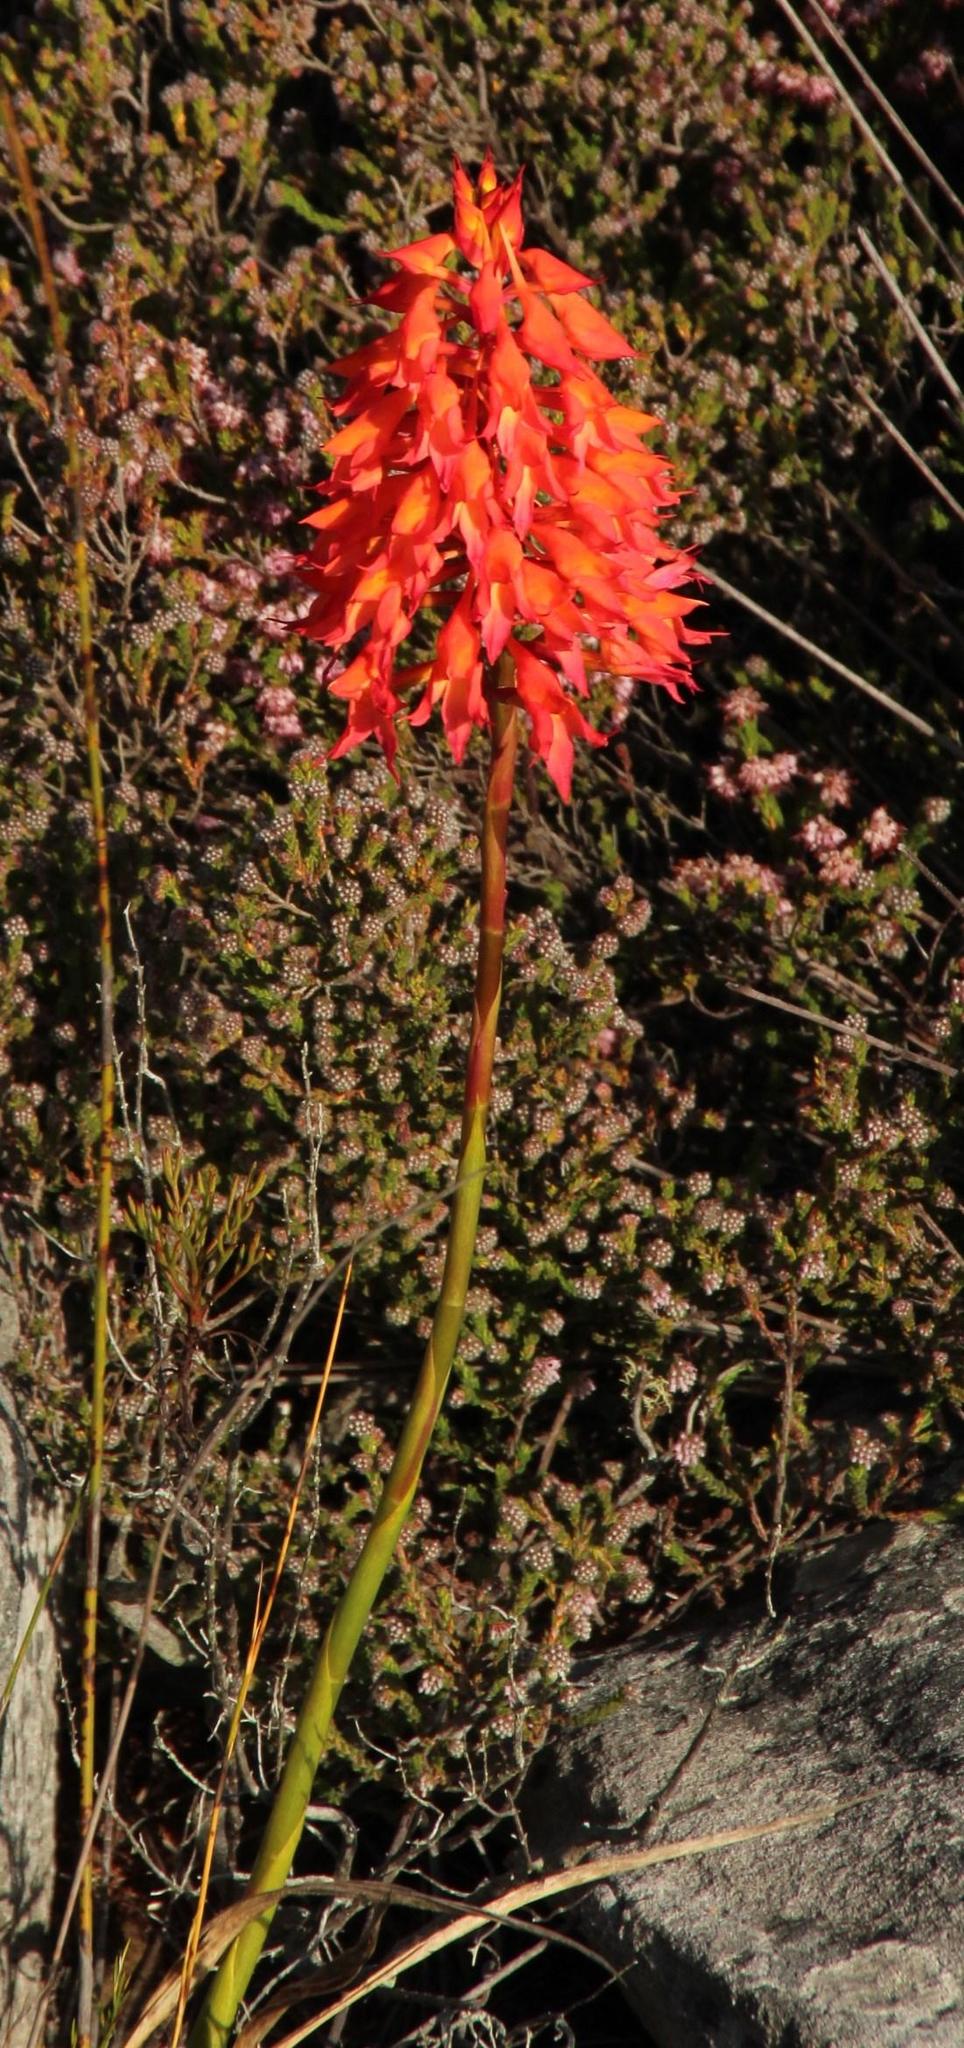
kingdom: Plantae
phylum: Tracheophyta
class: Liliopsida
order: Asparagales
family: Orchidaceae
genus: Disa
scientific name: Disa ferruginea
